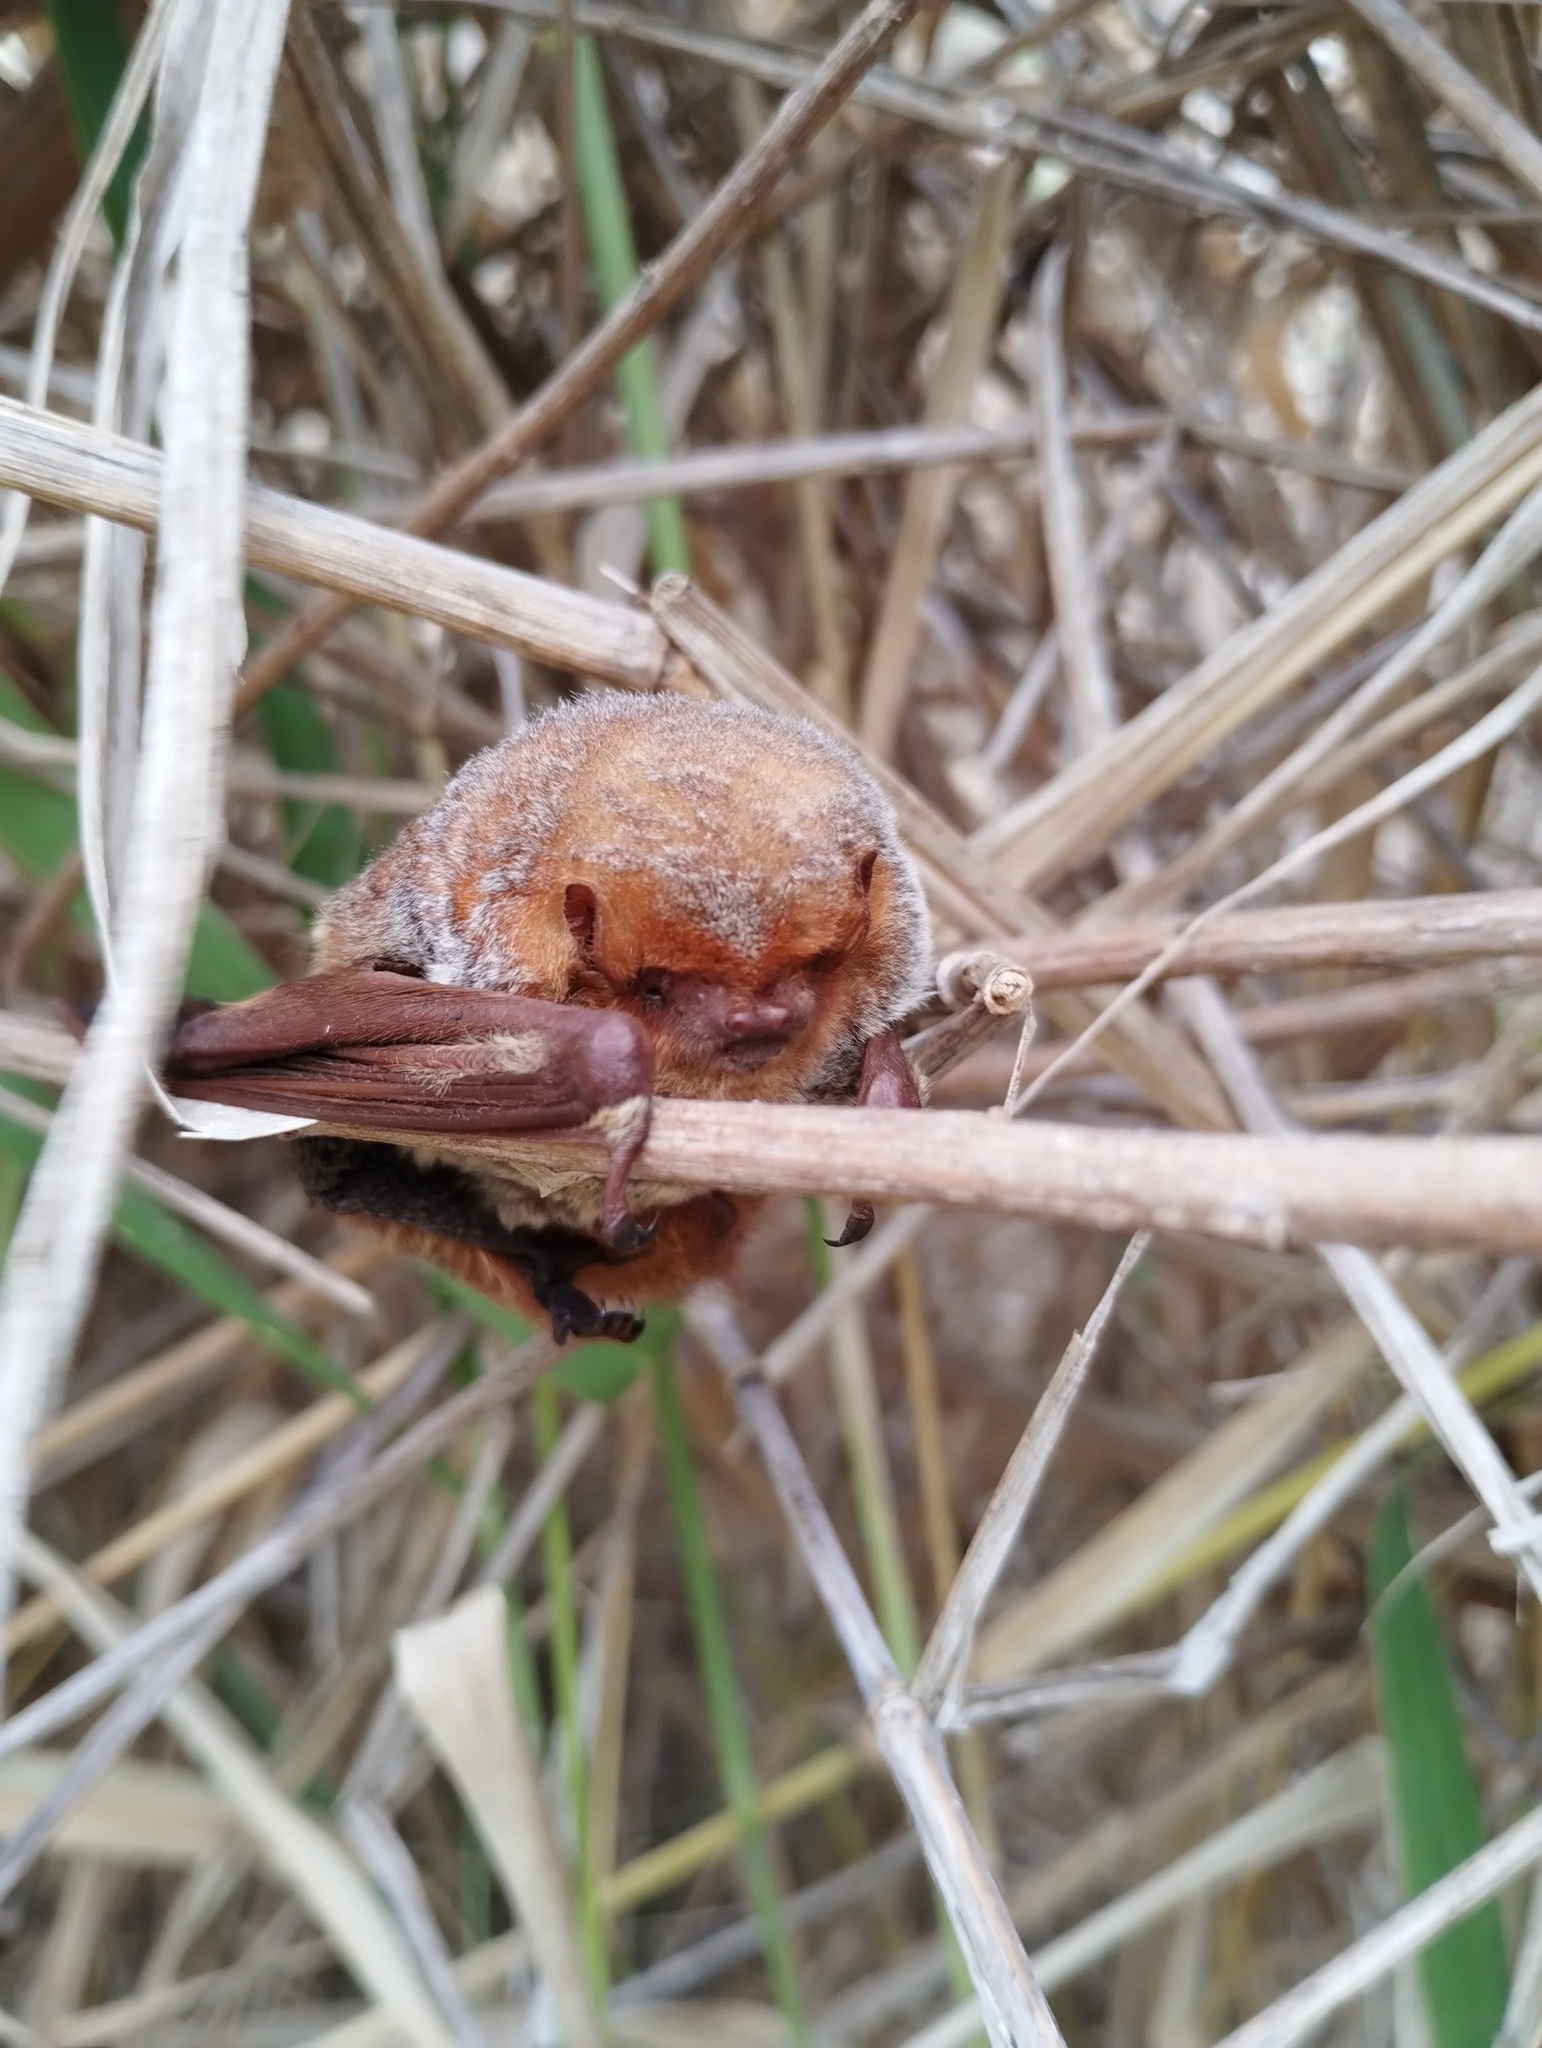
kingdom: Animalia
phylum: Chordata
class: Mammalia
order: Chiroptera
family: Vespertilionidae
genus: Lasiurus
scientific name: Lasiurus blossevillii
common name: Southern red bat
